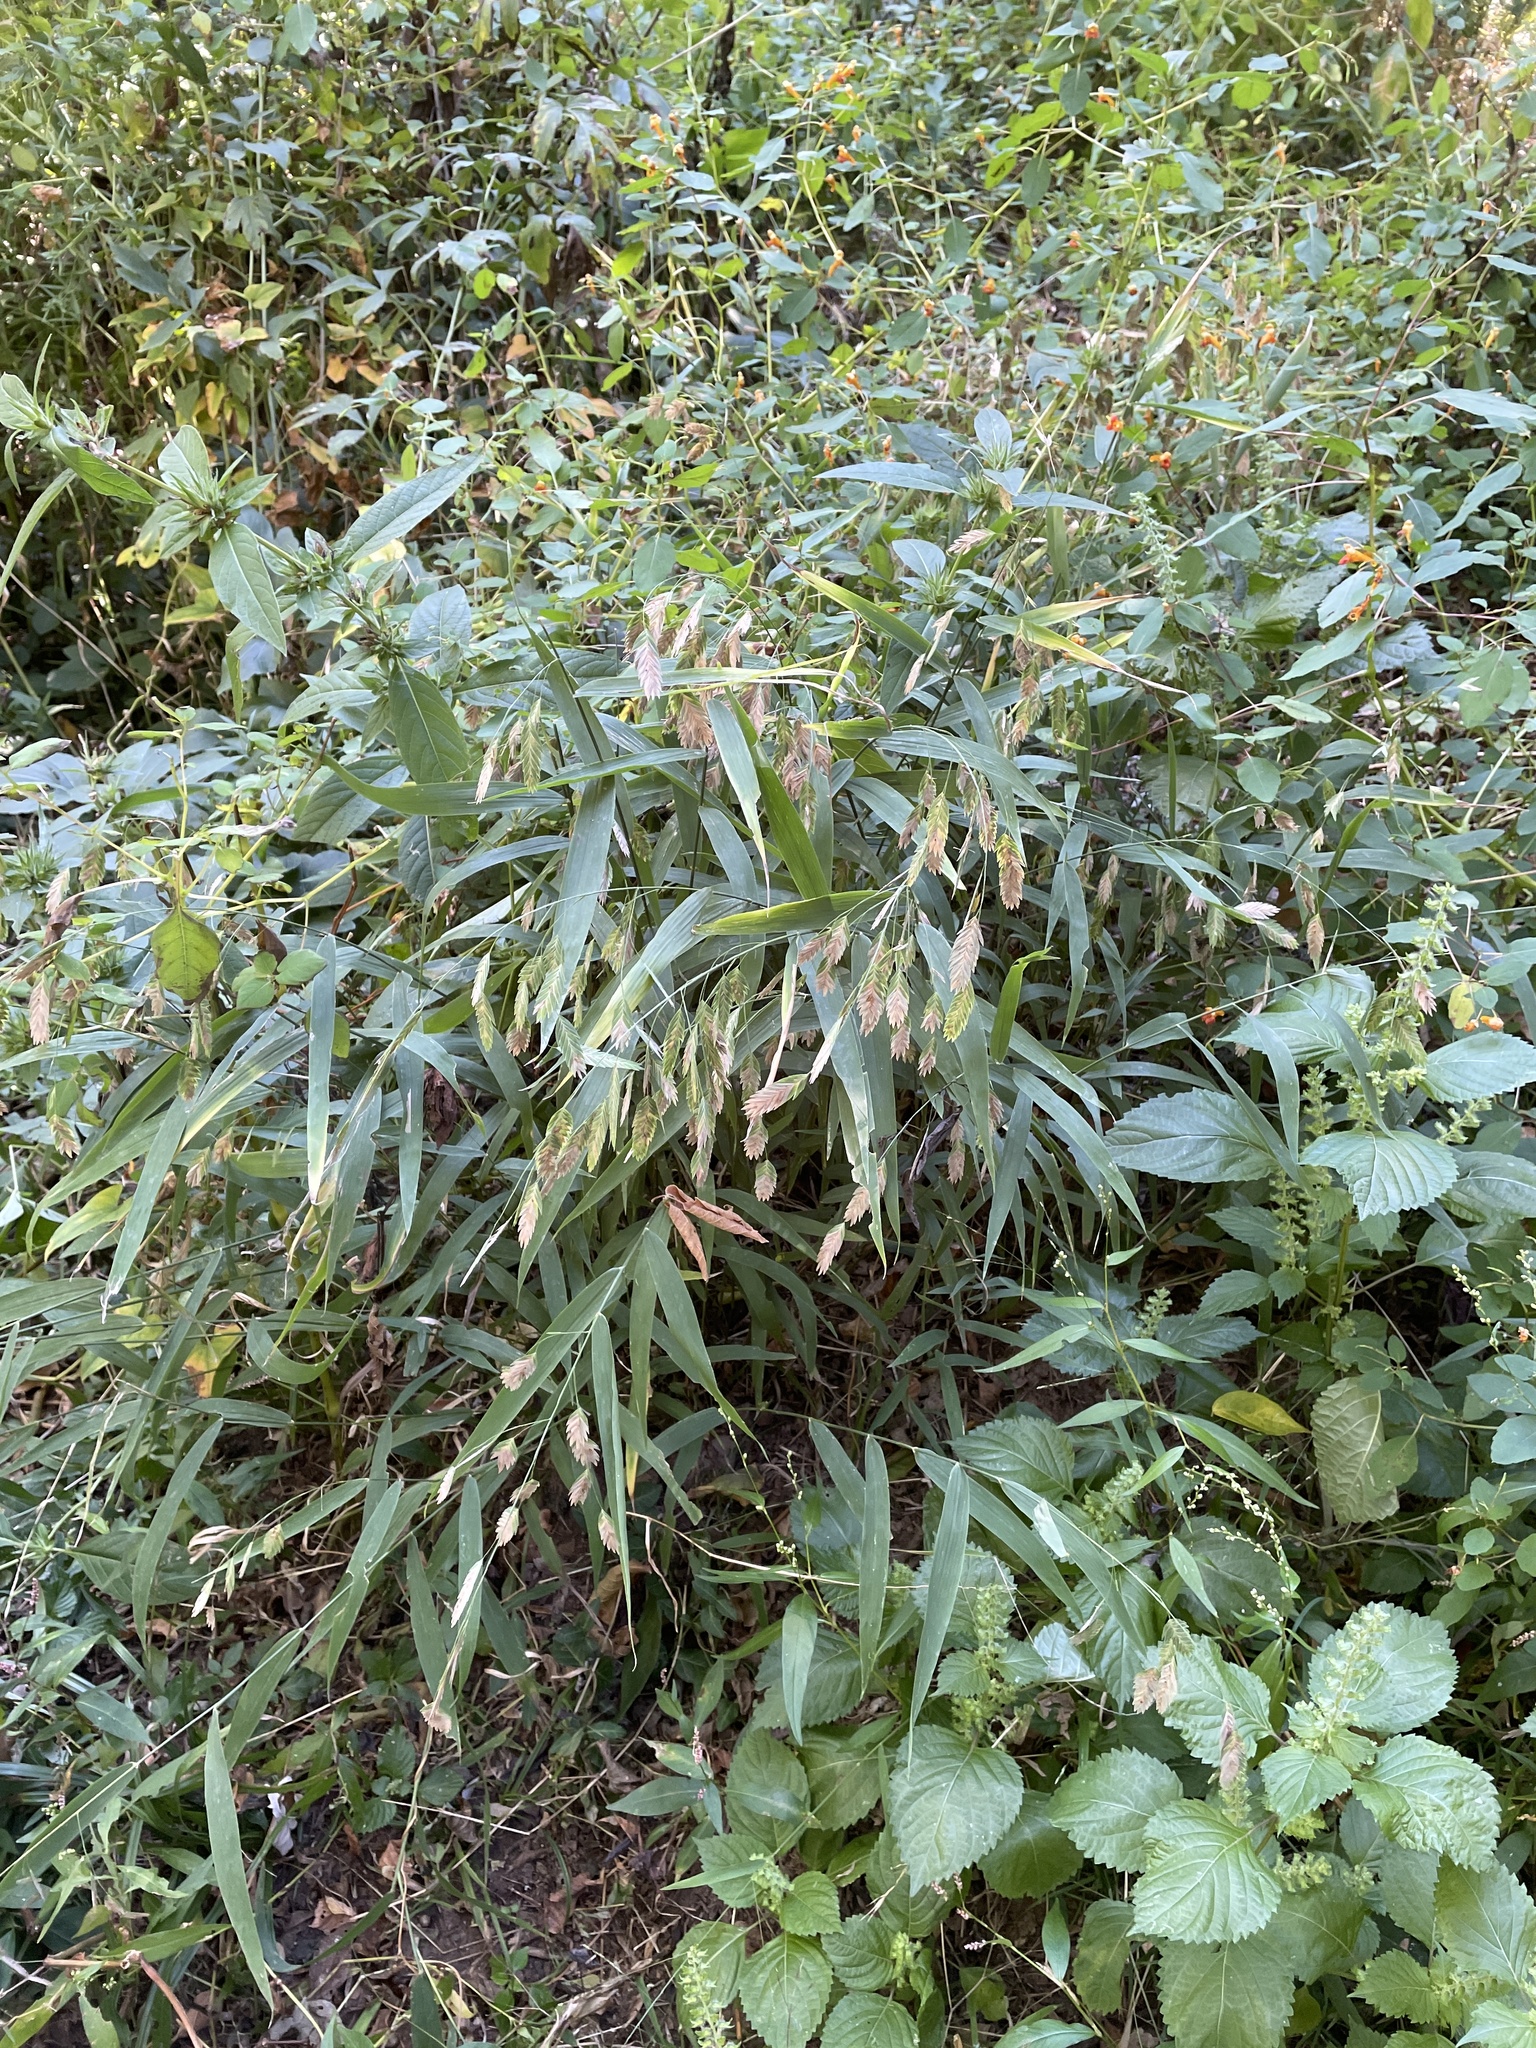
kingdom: Plantae
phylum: Tracheophyta
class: Liliopsida
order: Poales
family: Poaceae
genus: Chasmanthium
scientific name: Chasmanthium latifolium
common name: Broad-leaved chasmanthium
